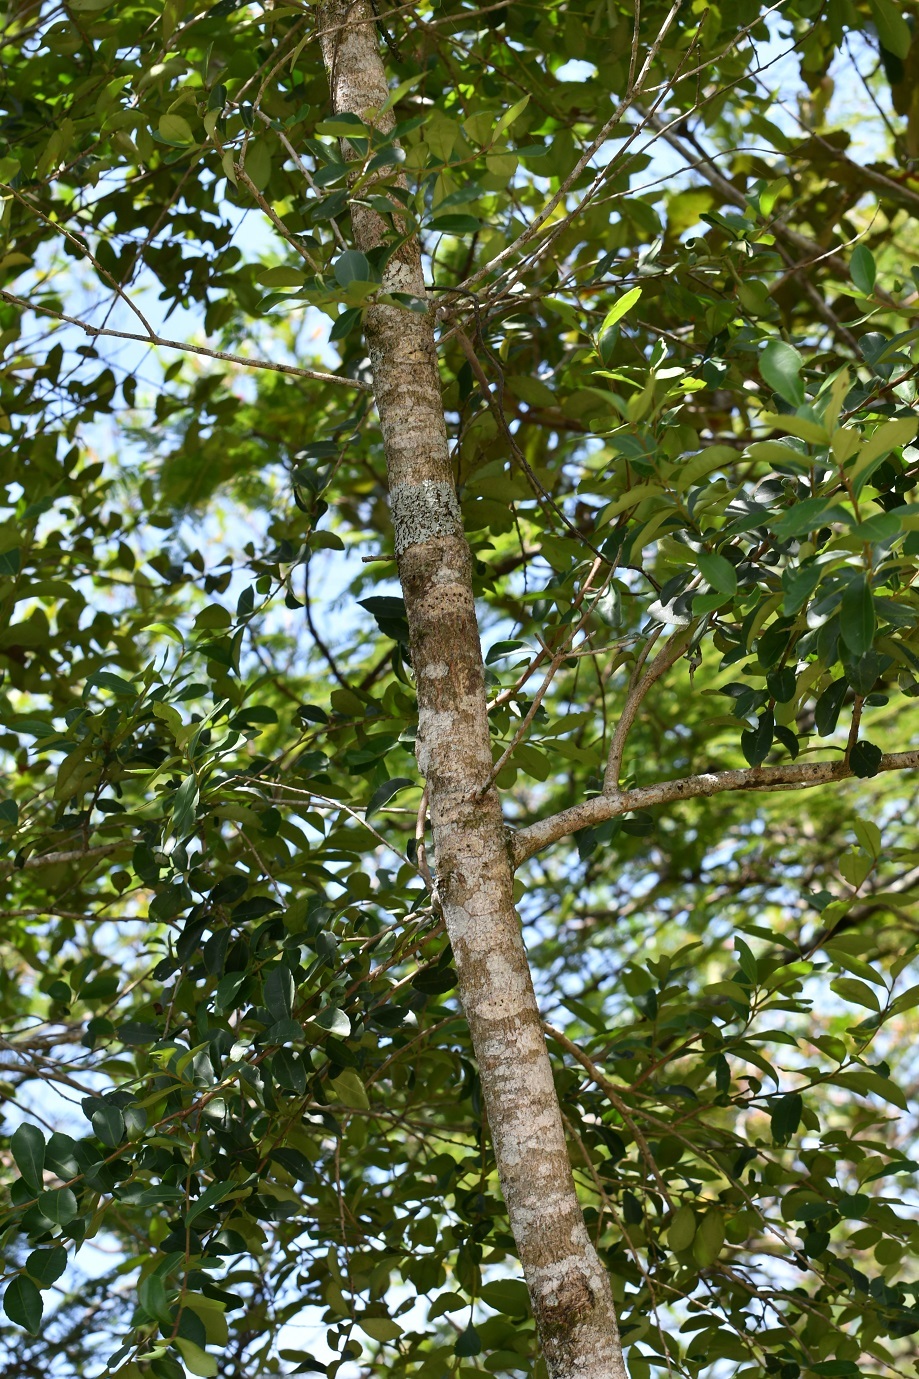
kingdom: Plantae
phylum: Tracheophyta
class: Magnoliopsida
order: Aquifoliales
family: Aquifoliaceae
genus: Ilex
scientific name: Ilex vomitoria
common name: Yaupon holly
